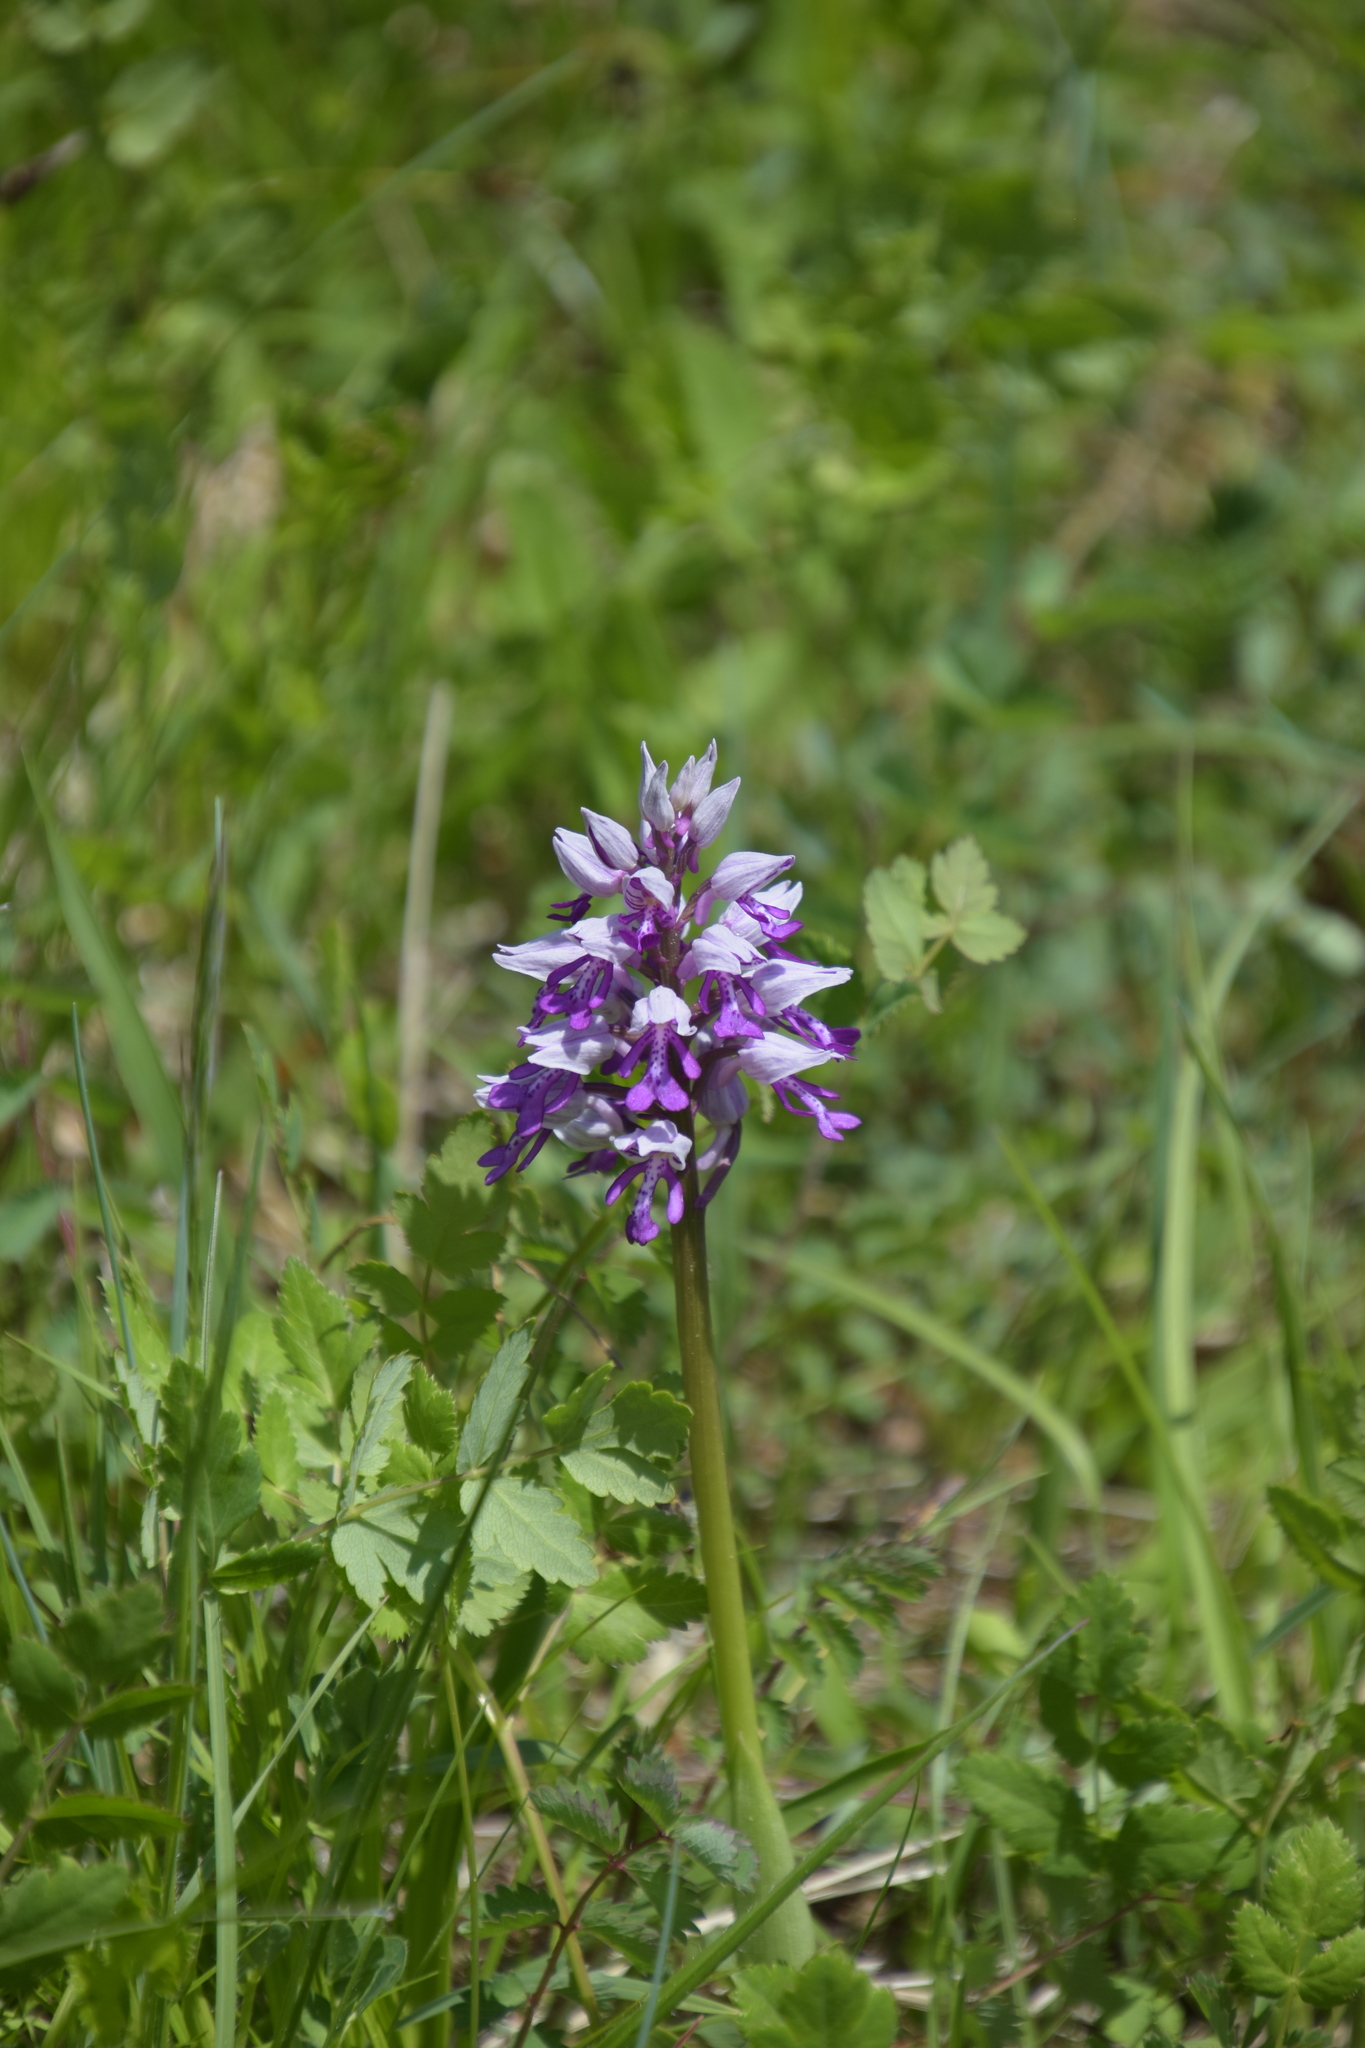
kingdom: Plantae
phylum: Tracheophyta
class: Liliopsida
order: Asparagales
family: Orchidaceae
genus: Orchis
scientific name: Orchis militaris
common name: Military orchid
